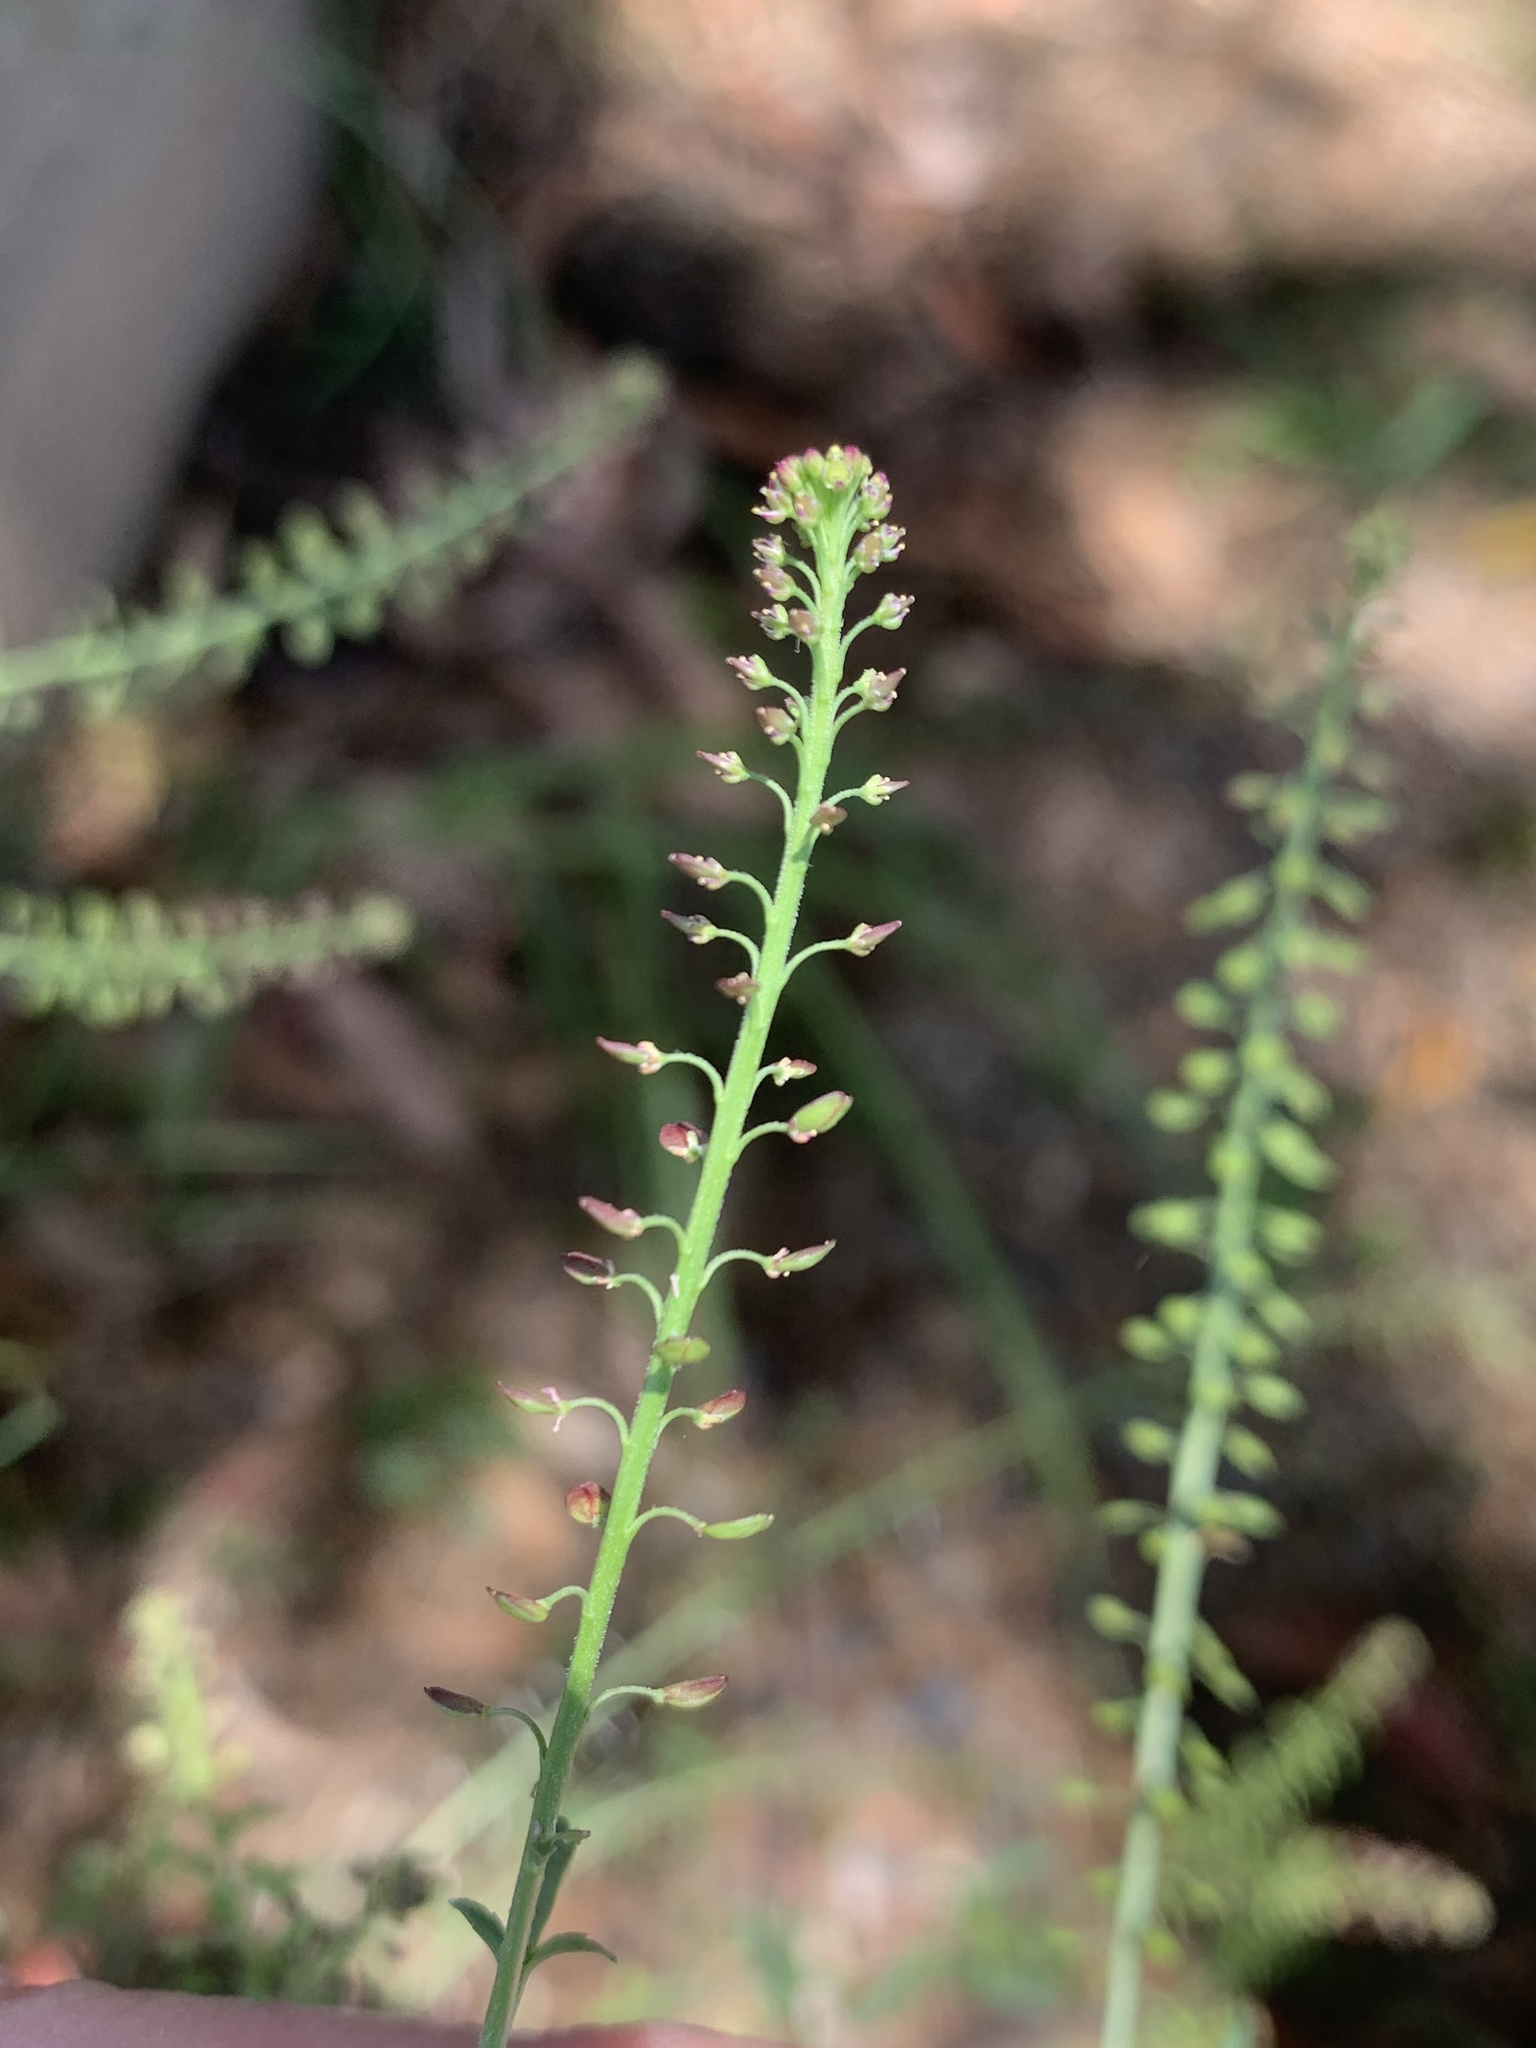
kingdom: Plantae
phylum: Tracheophyta
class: Magnoliopsida
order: Brassicales
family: Brassicaceae
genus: Lepidium
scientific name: Lepidium africanum
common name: African pepperwort
